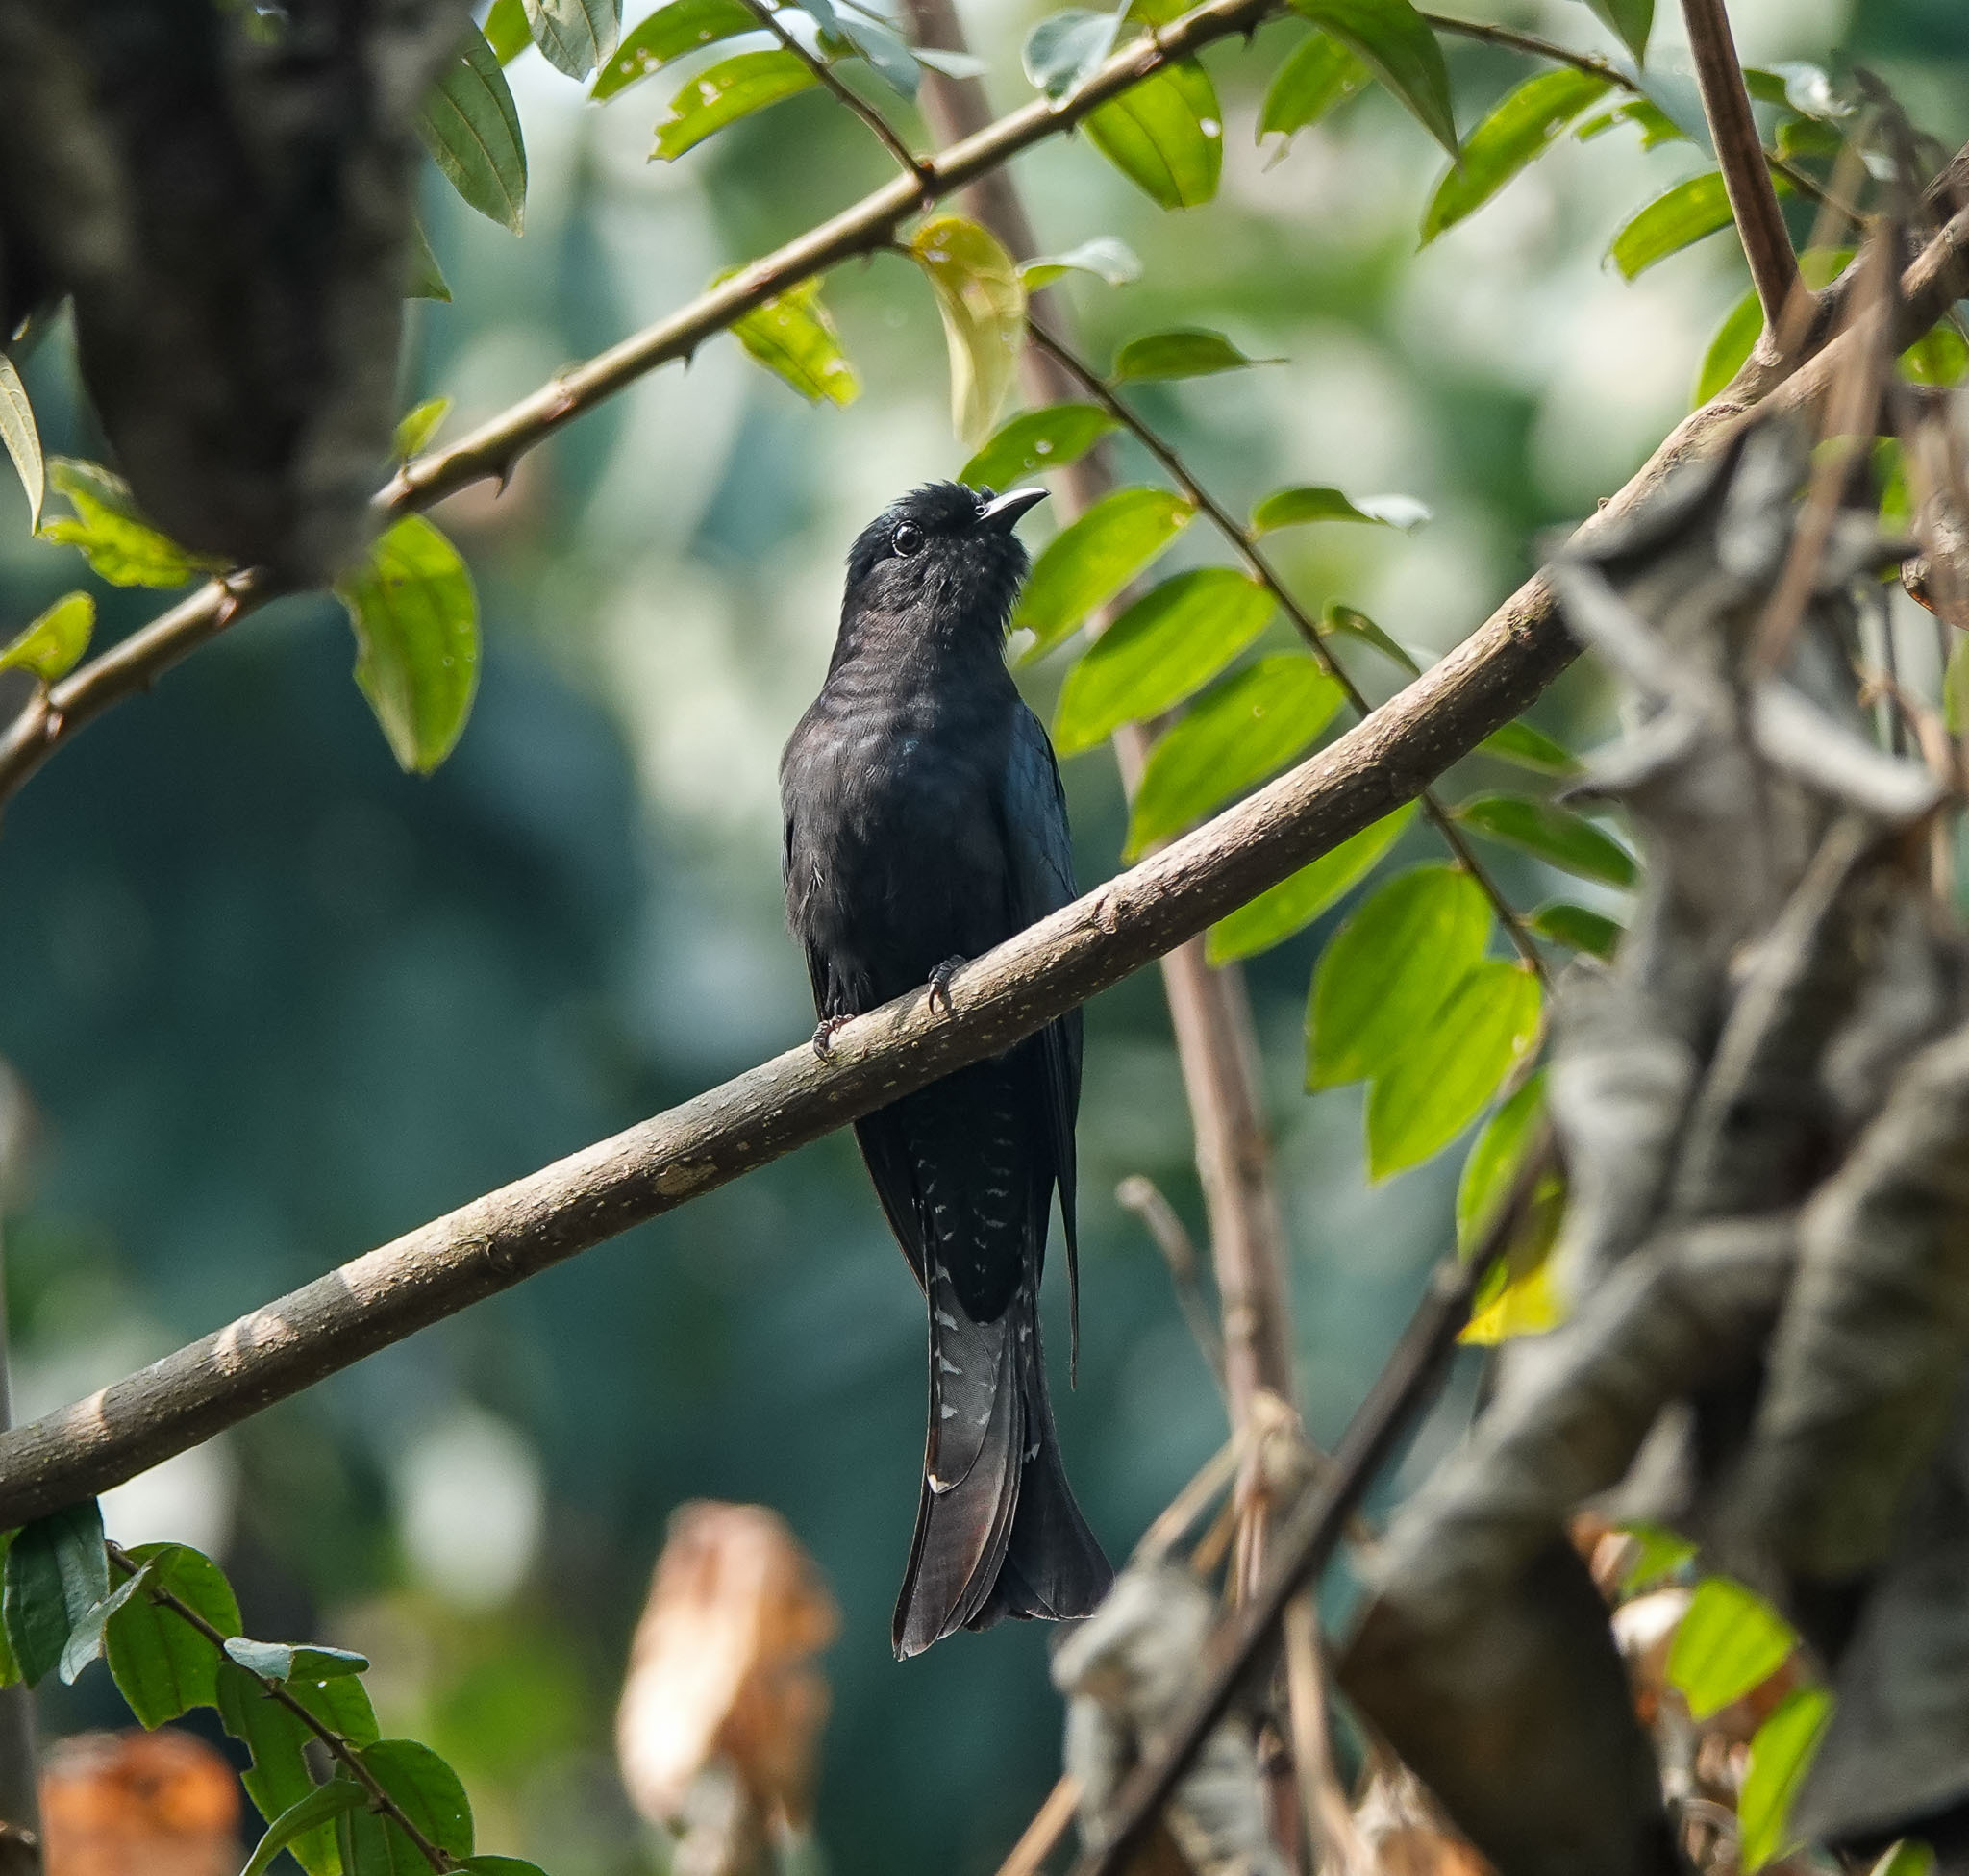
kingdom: Animalia
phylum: Chordata
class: Aves
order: Cuculiformes
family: Cuculidae
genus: Surniculus
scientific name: Surniculus lugubris
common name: Square-tailed drongo-cuckoo
